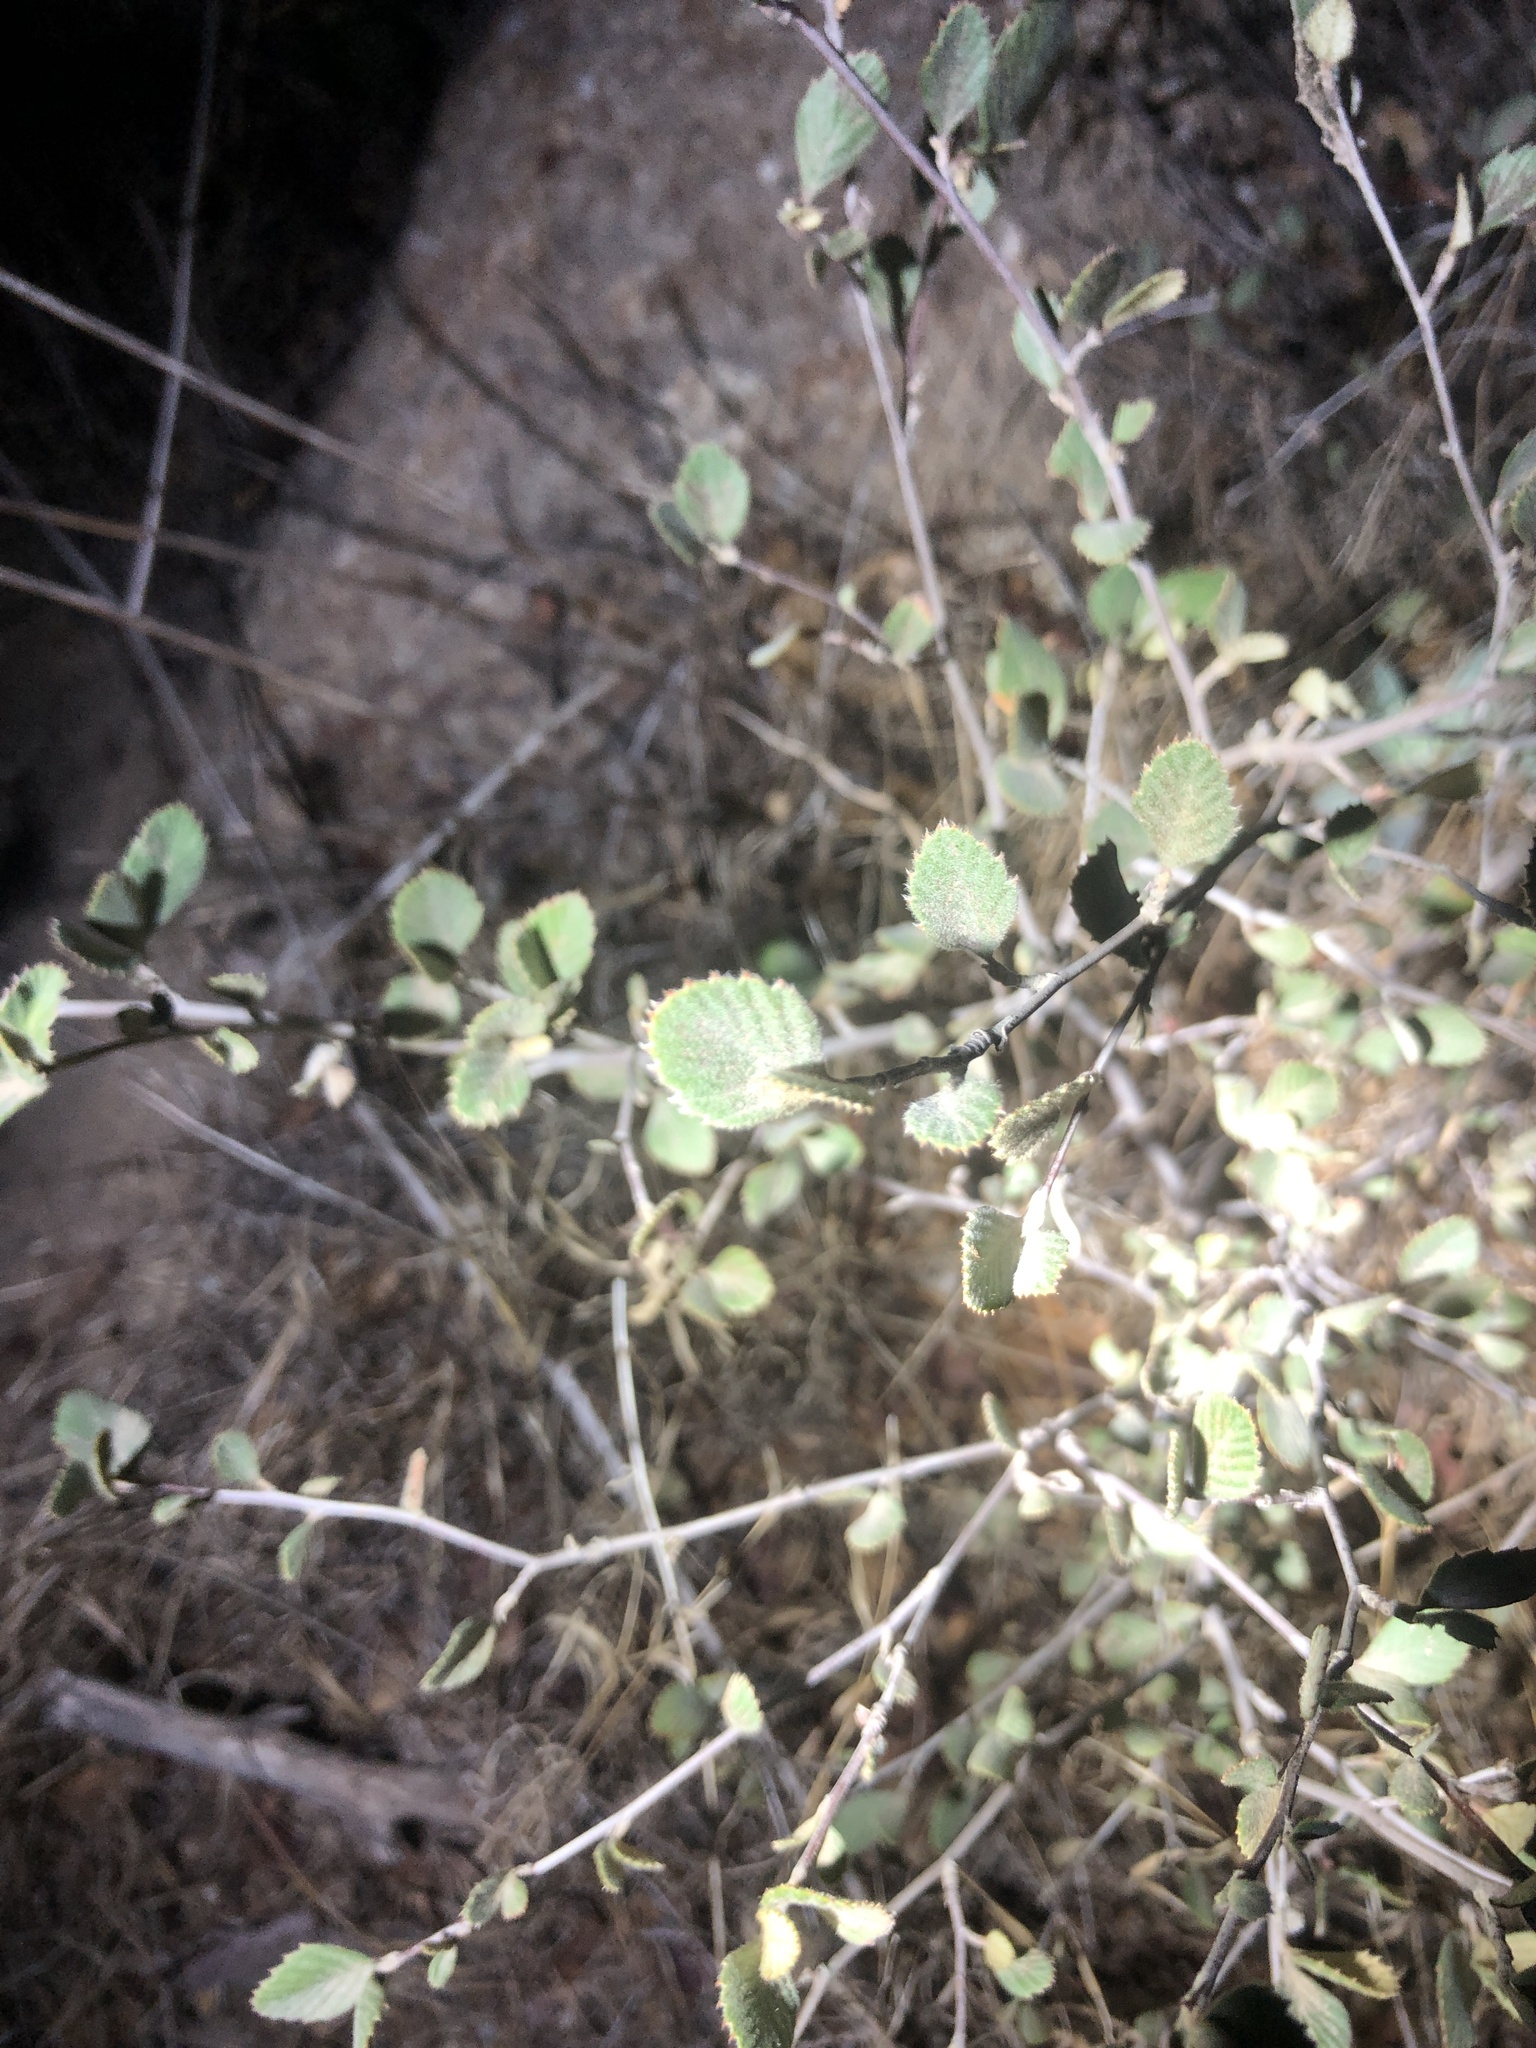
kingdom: Plantae
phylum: Tracheophyta
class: Magnoliopsida
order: Rosales
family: Rosaceae
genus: Cercocarpus
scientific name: Cercocarpus betuloides
